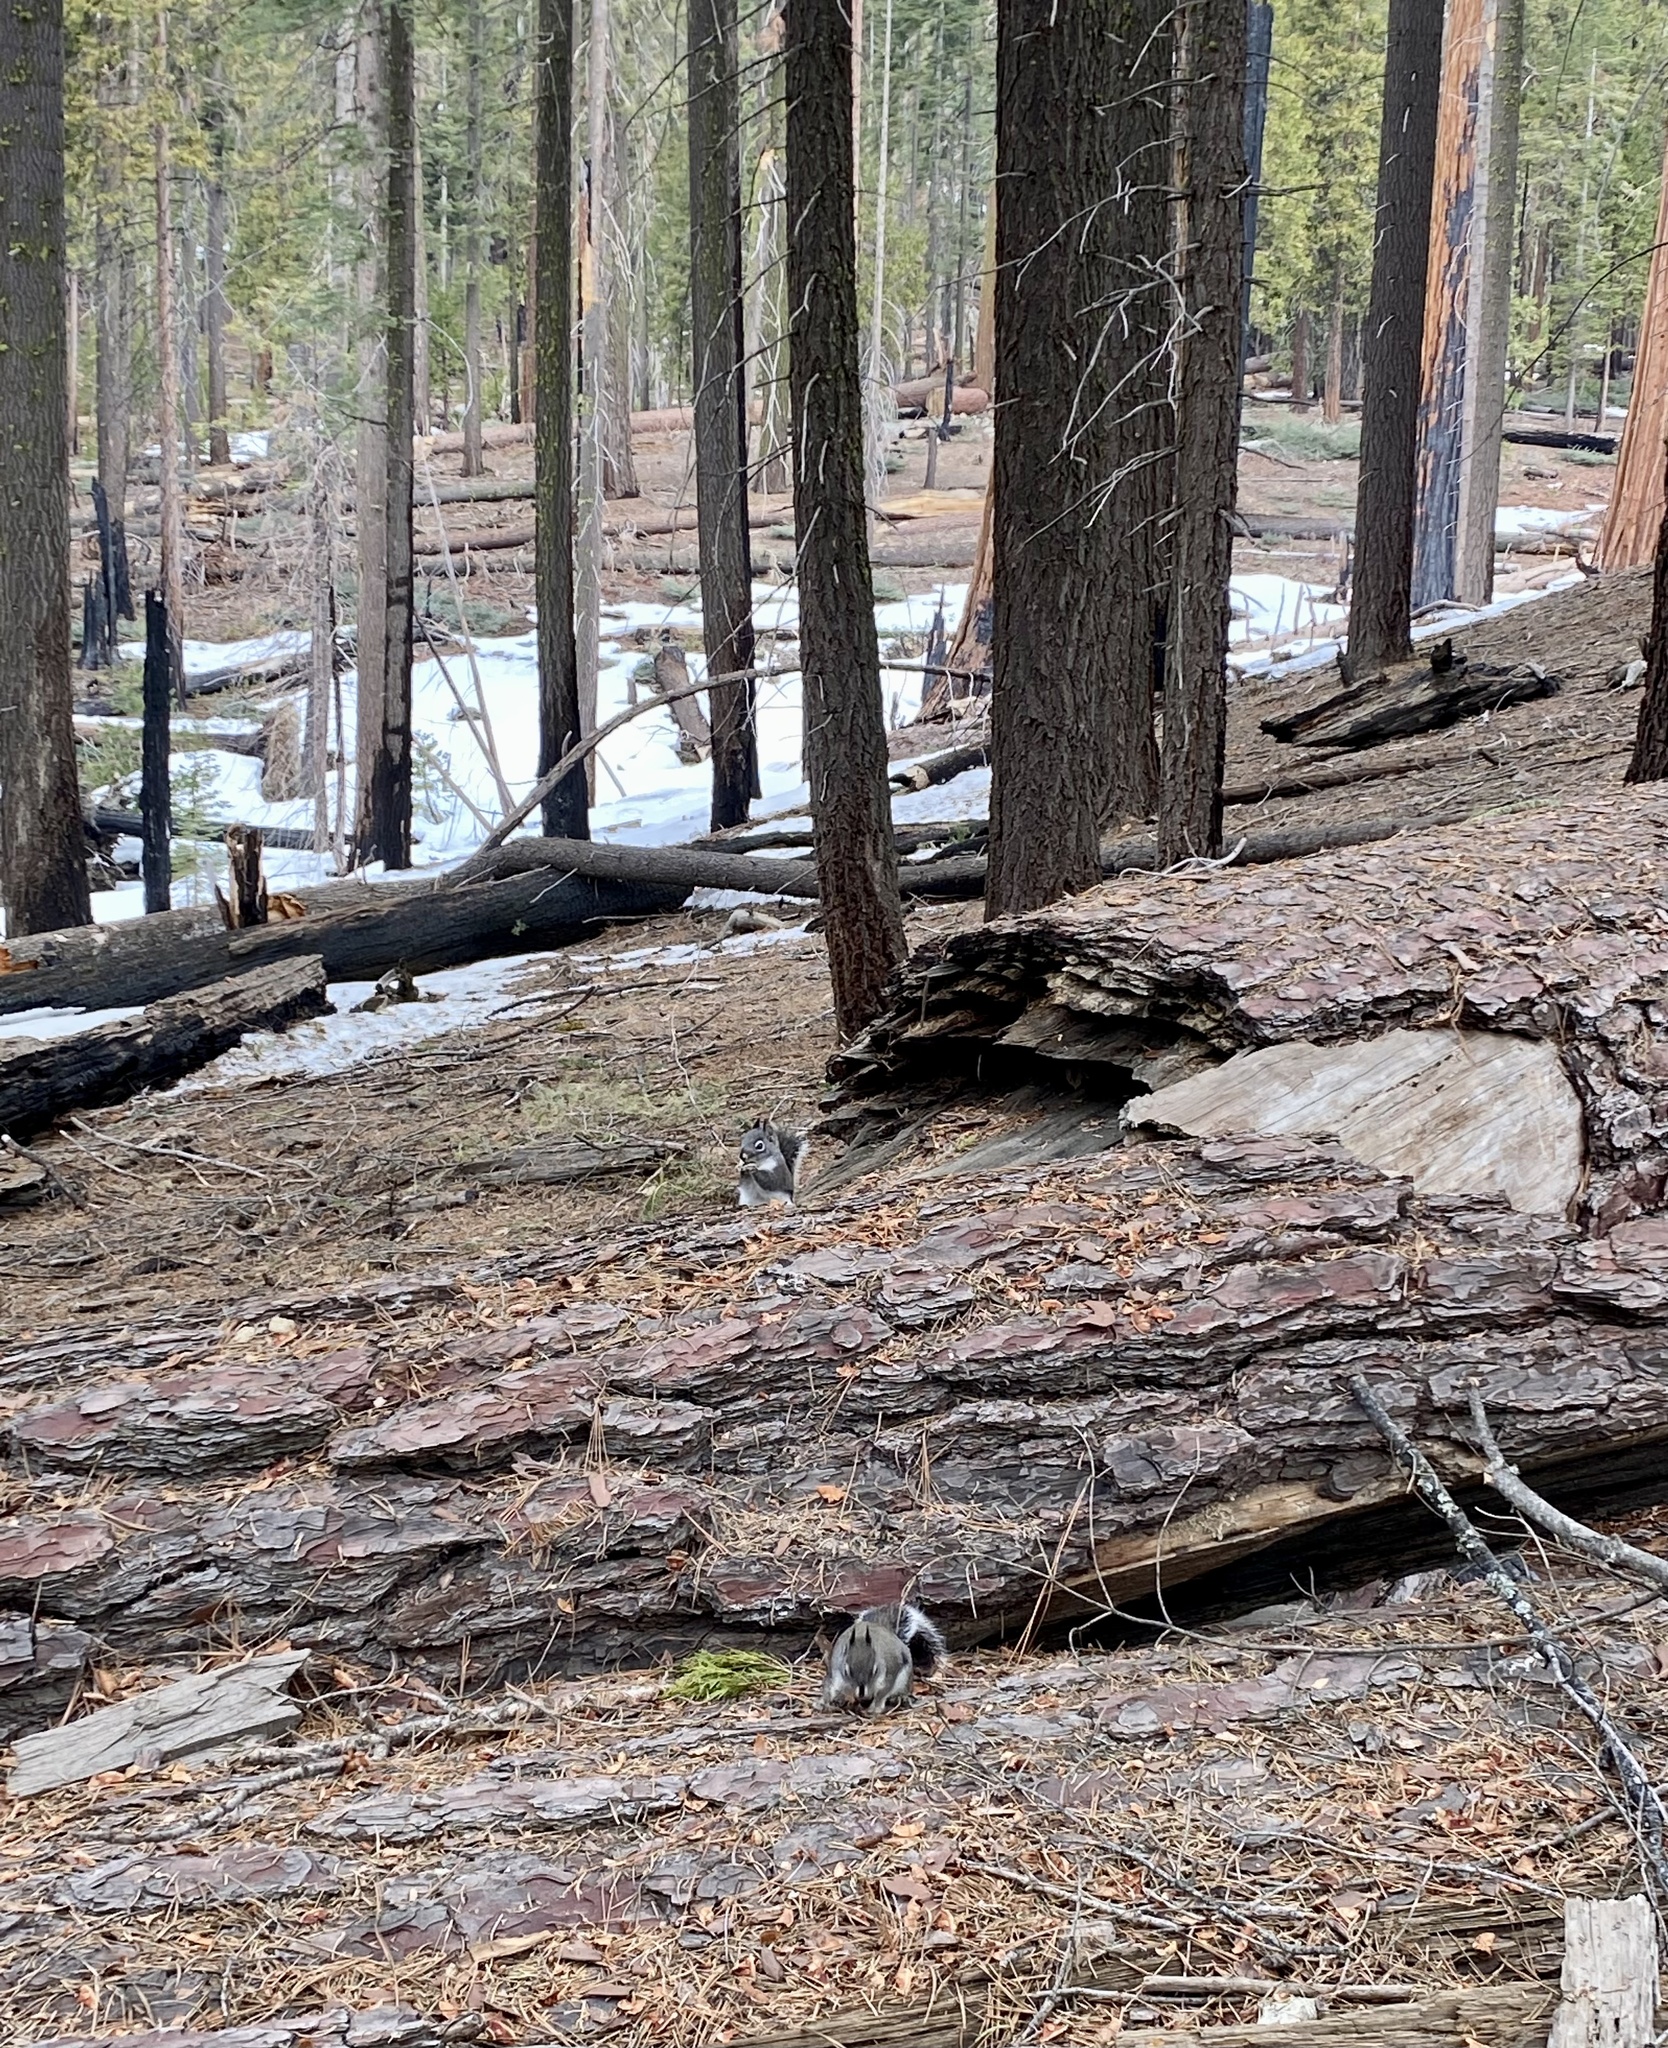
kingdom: Animalia
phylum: Chordata
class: Mammalia
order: Rodentia
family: Sciuridae
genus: Tamiasciurus
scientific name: Tamiasciurus douglasii
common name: Douglas's squirrel
